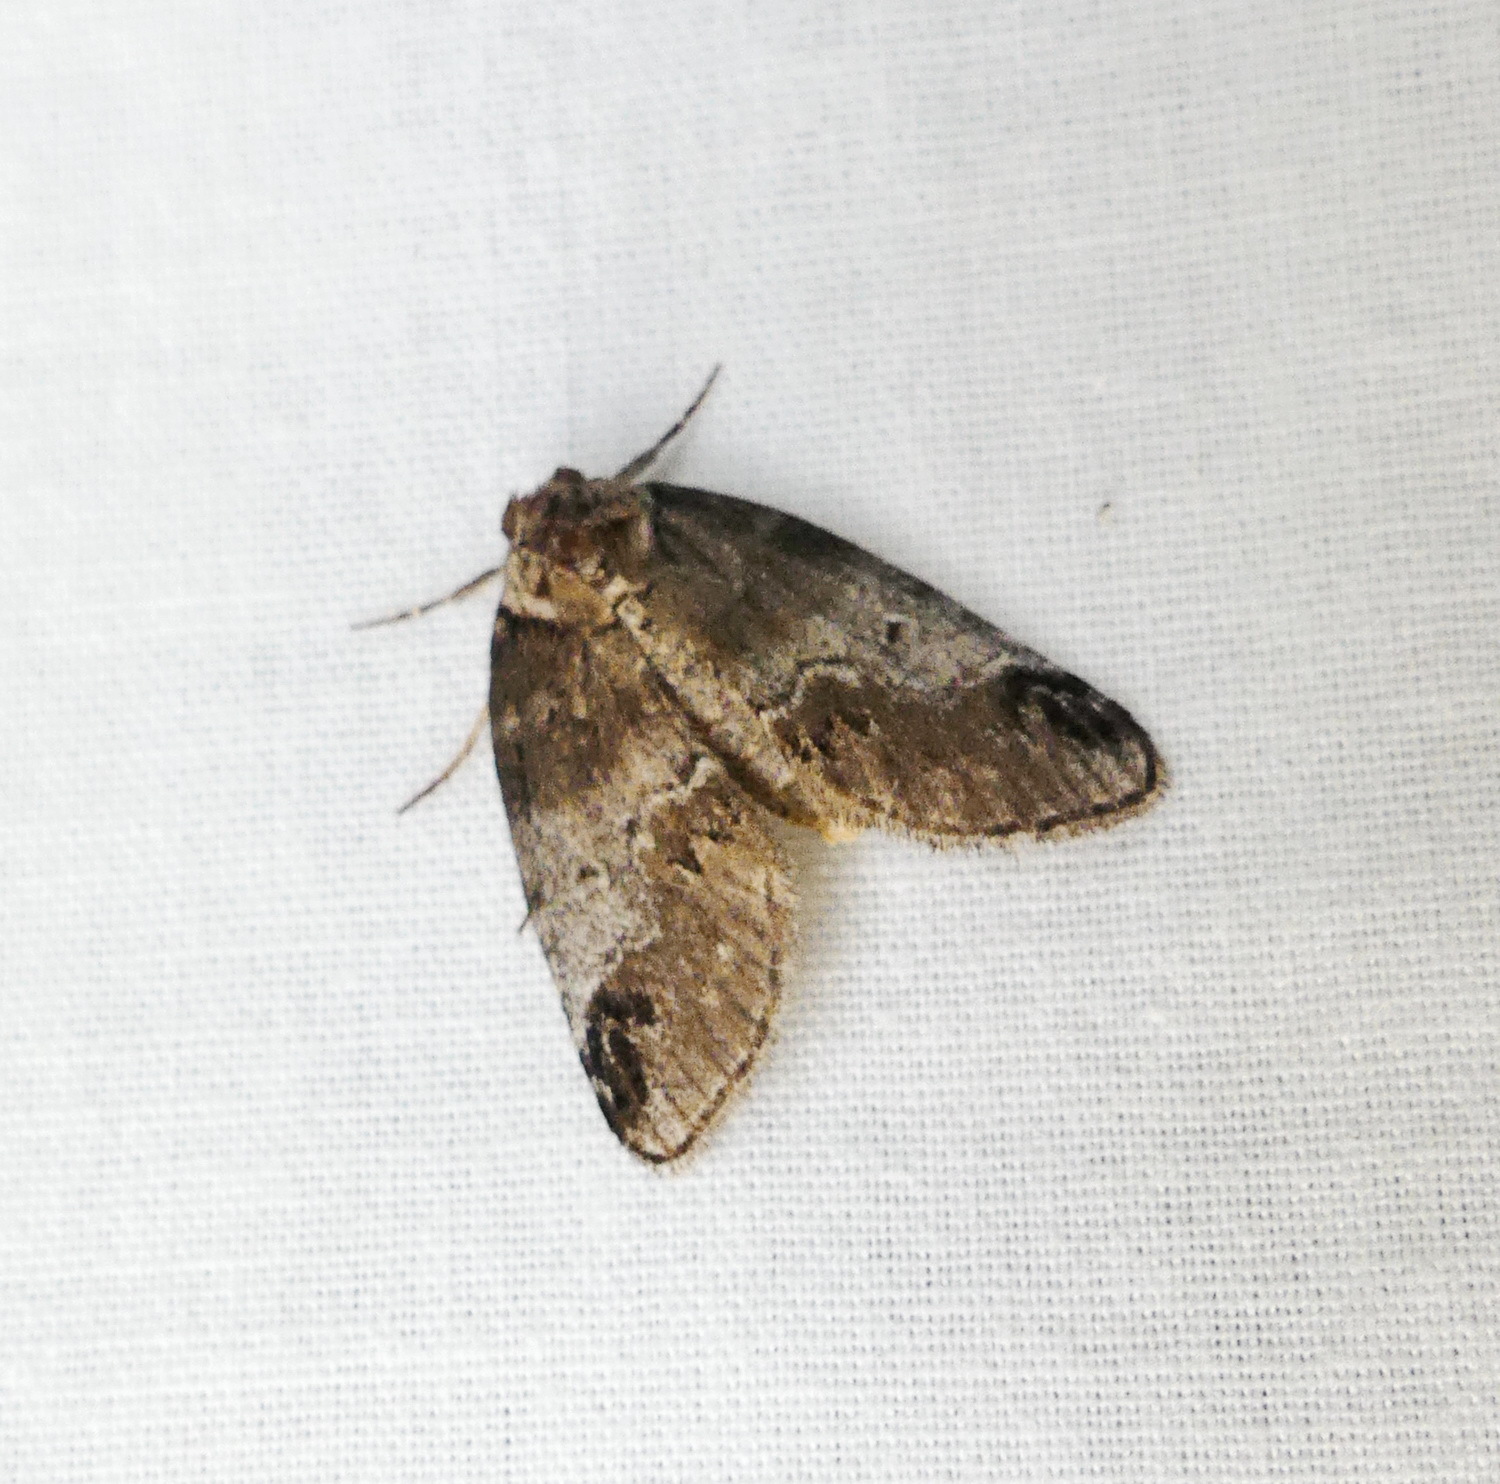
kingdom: Animalia
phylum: Arthropoda
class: Insecta
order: Lepidoptera
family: Nolidae
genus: Baileya
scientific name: Baileya dormitans
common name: Sleeping baileya moth
